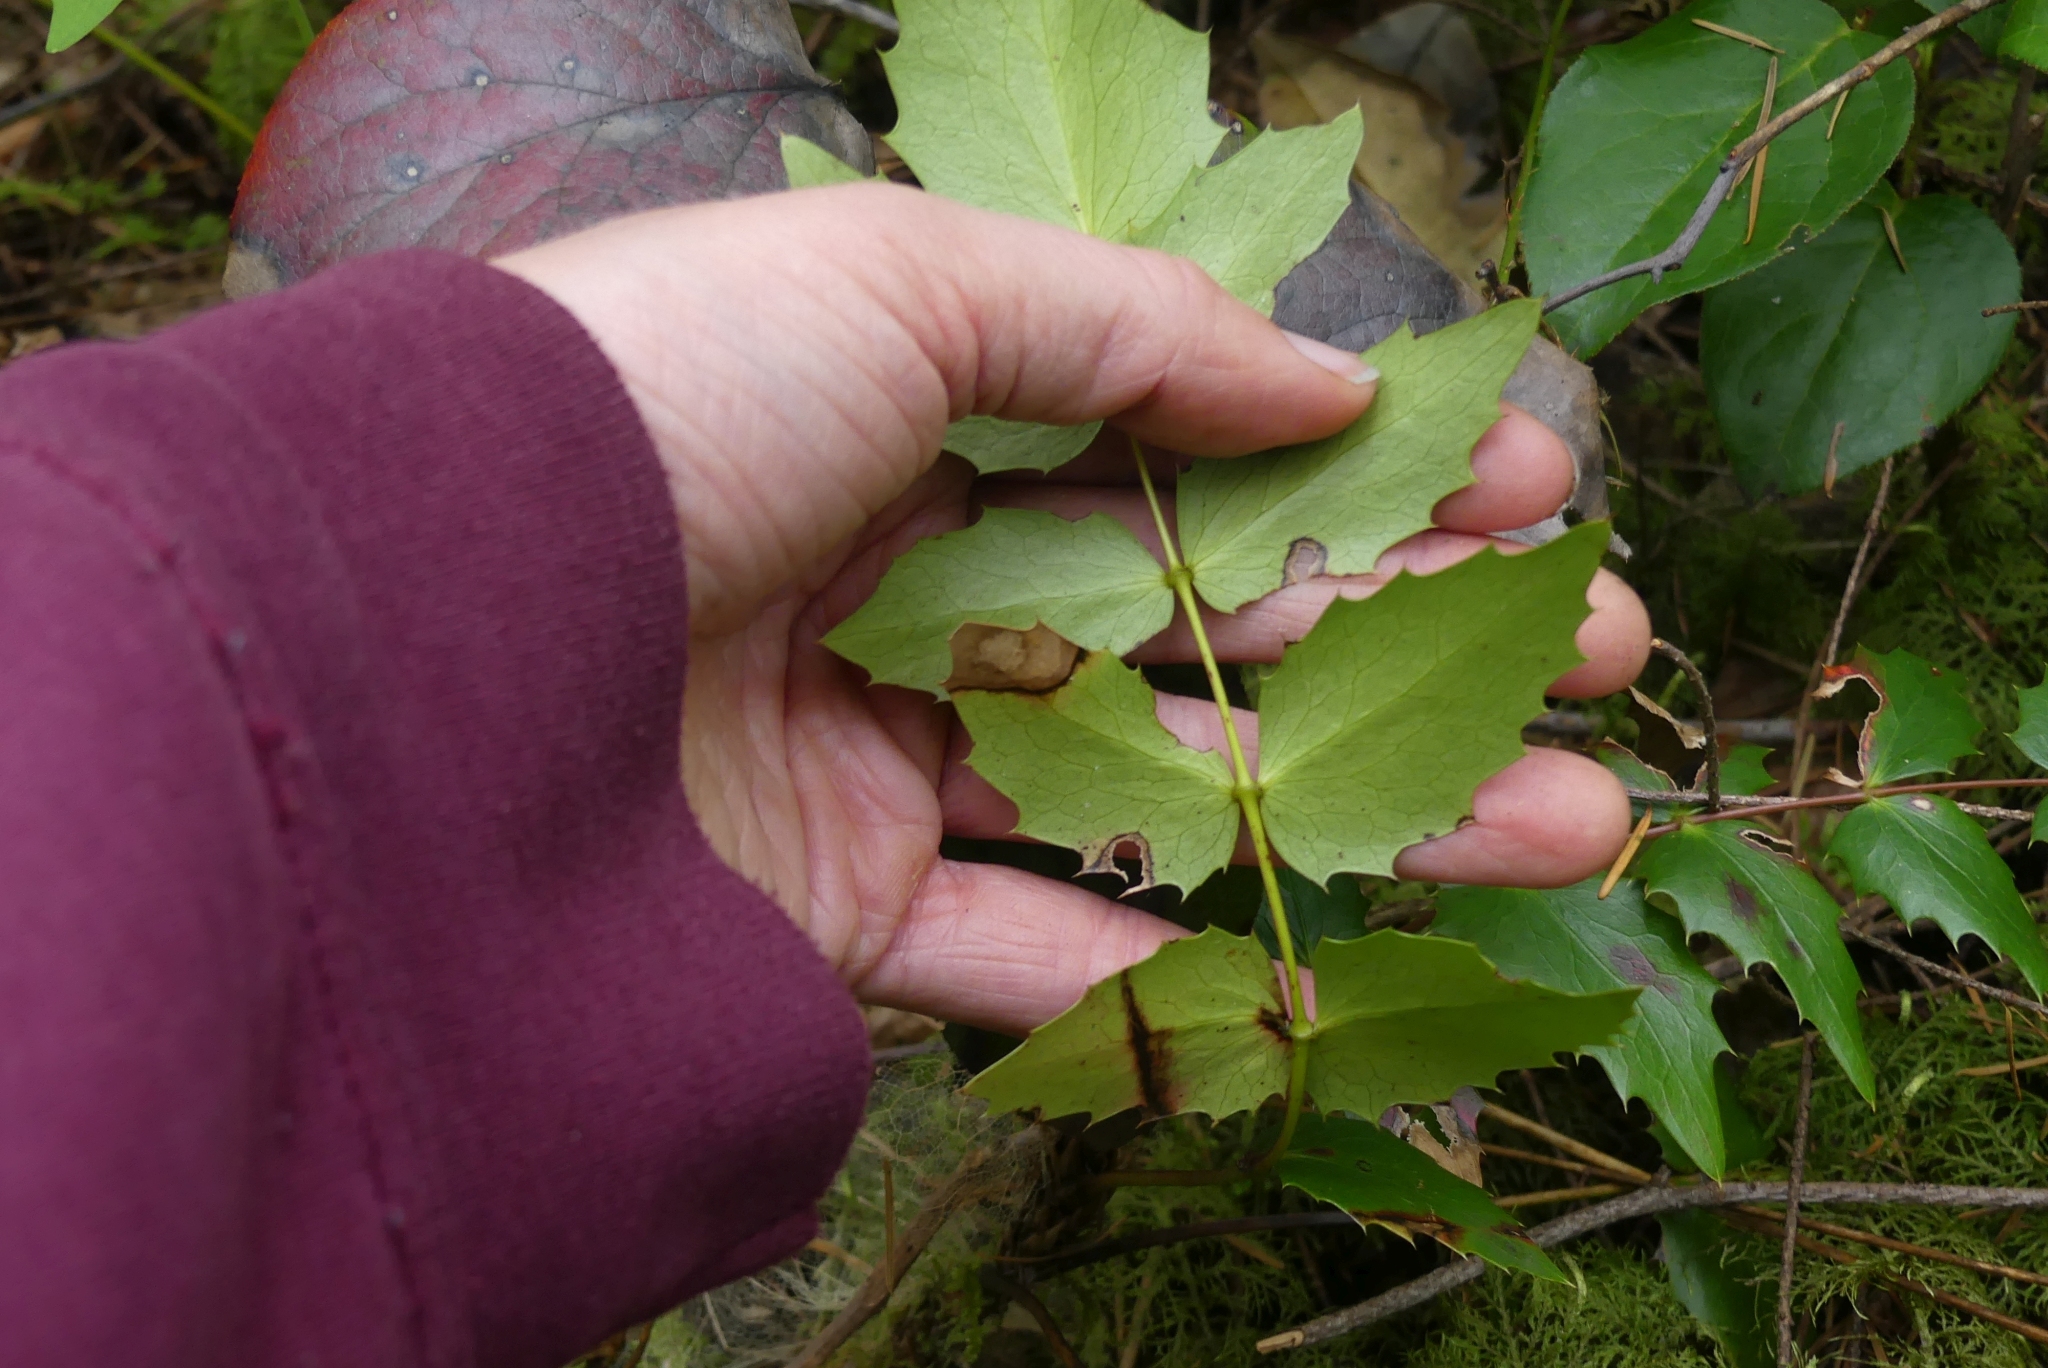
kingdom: Plantae
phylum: Tracheophyta
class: Magnoliopsida
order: Ranunculales
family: Berberidaceae
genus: Mahonia
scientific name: Mahonia nervosa
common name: Cascade oregon-grape
